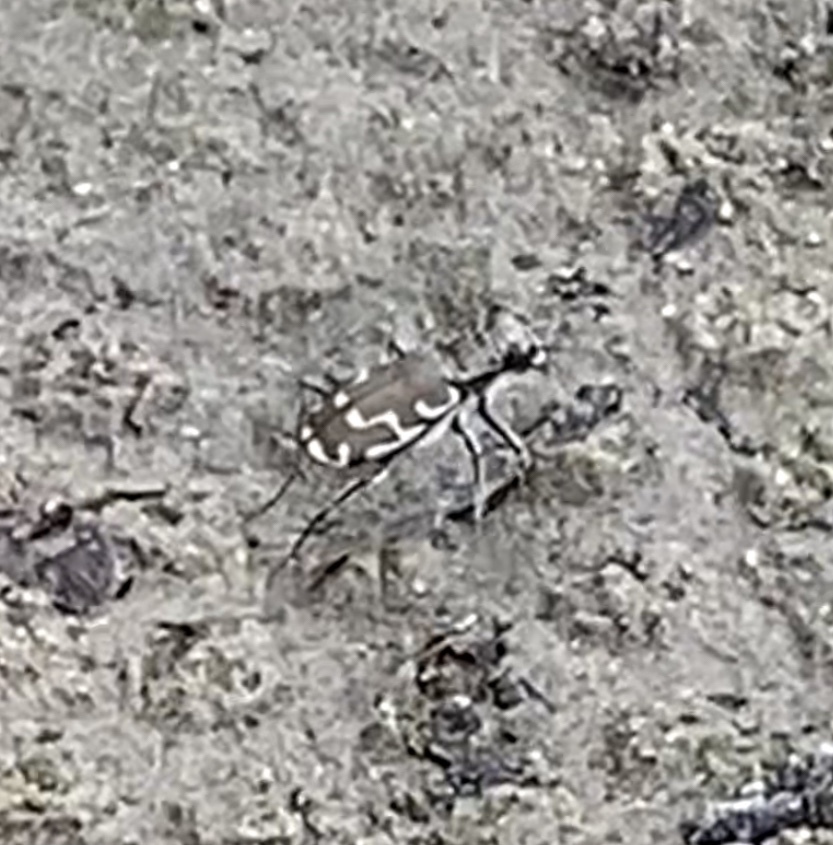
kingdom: Animalia
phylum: Arthropoda
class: Insecta
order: Coleoptera
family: Carabidae
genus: Cicindela
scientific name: Cicindela repanda
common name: Bronzed tiger beetle
